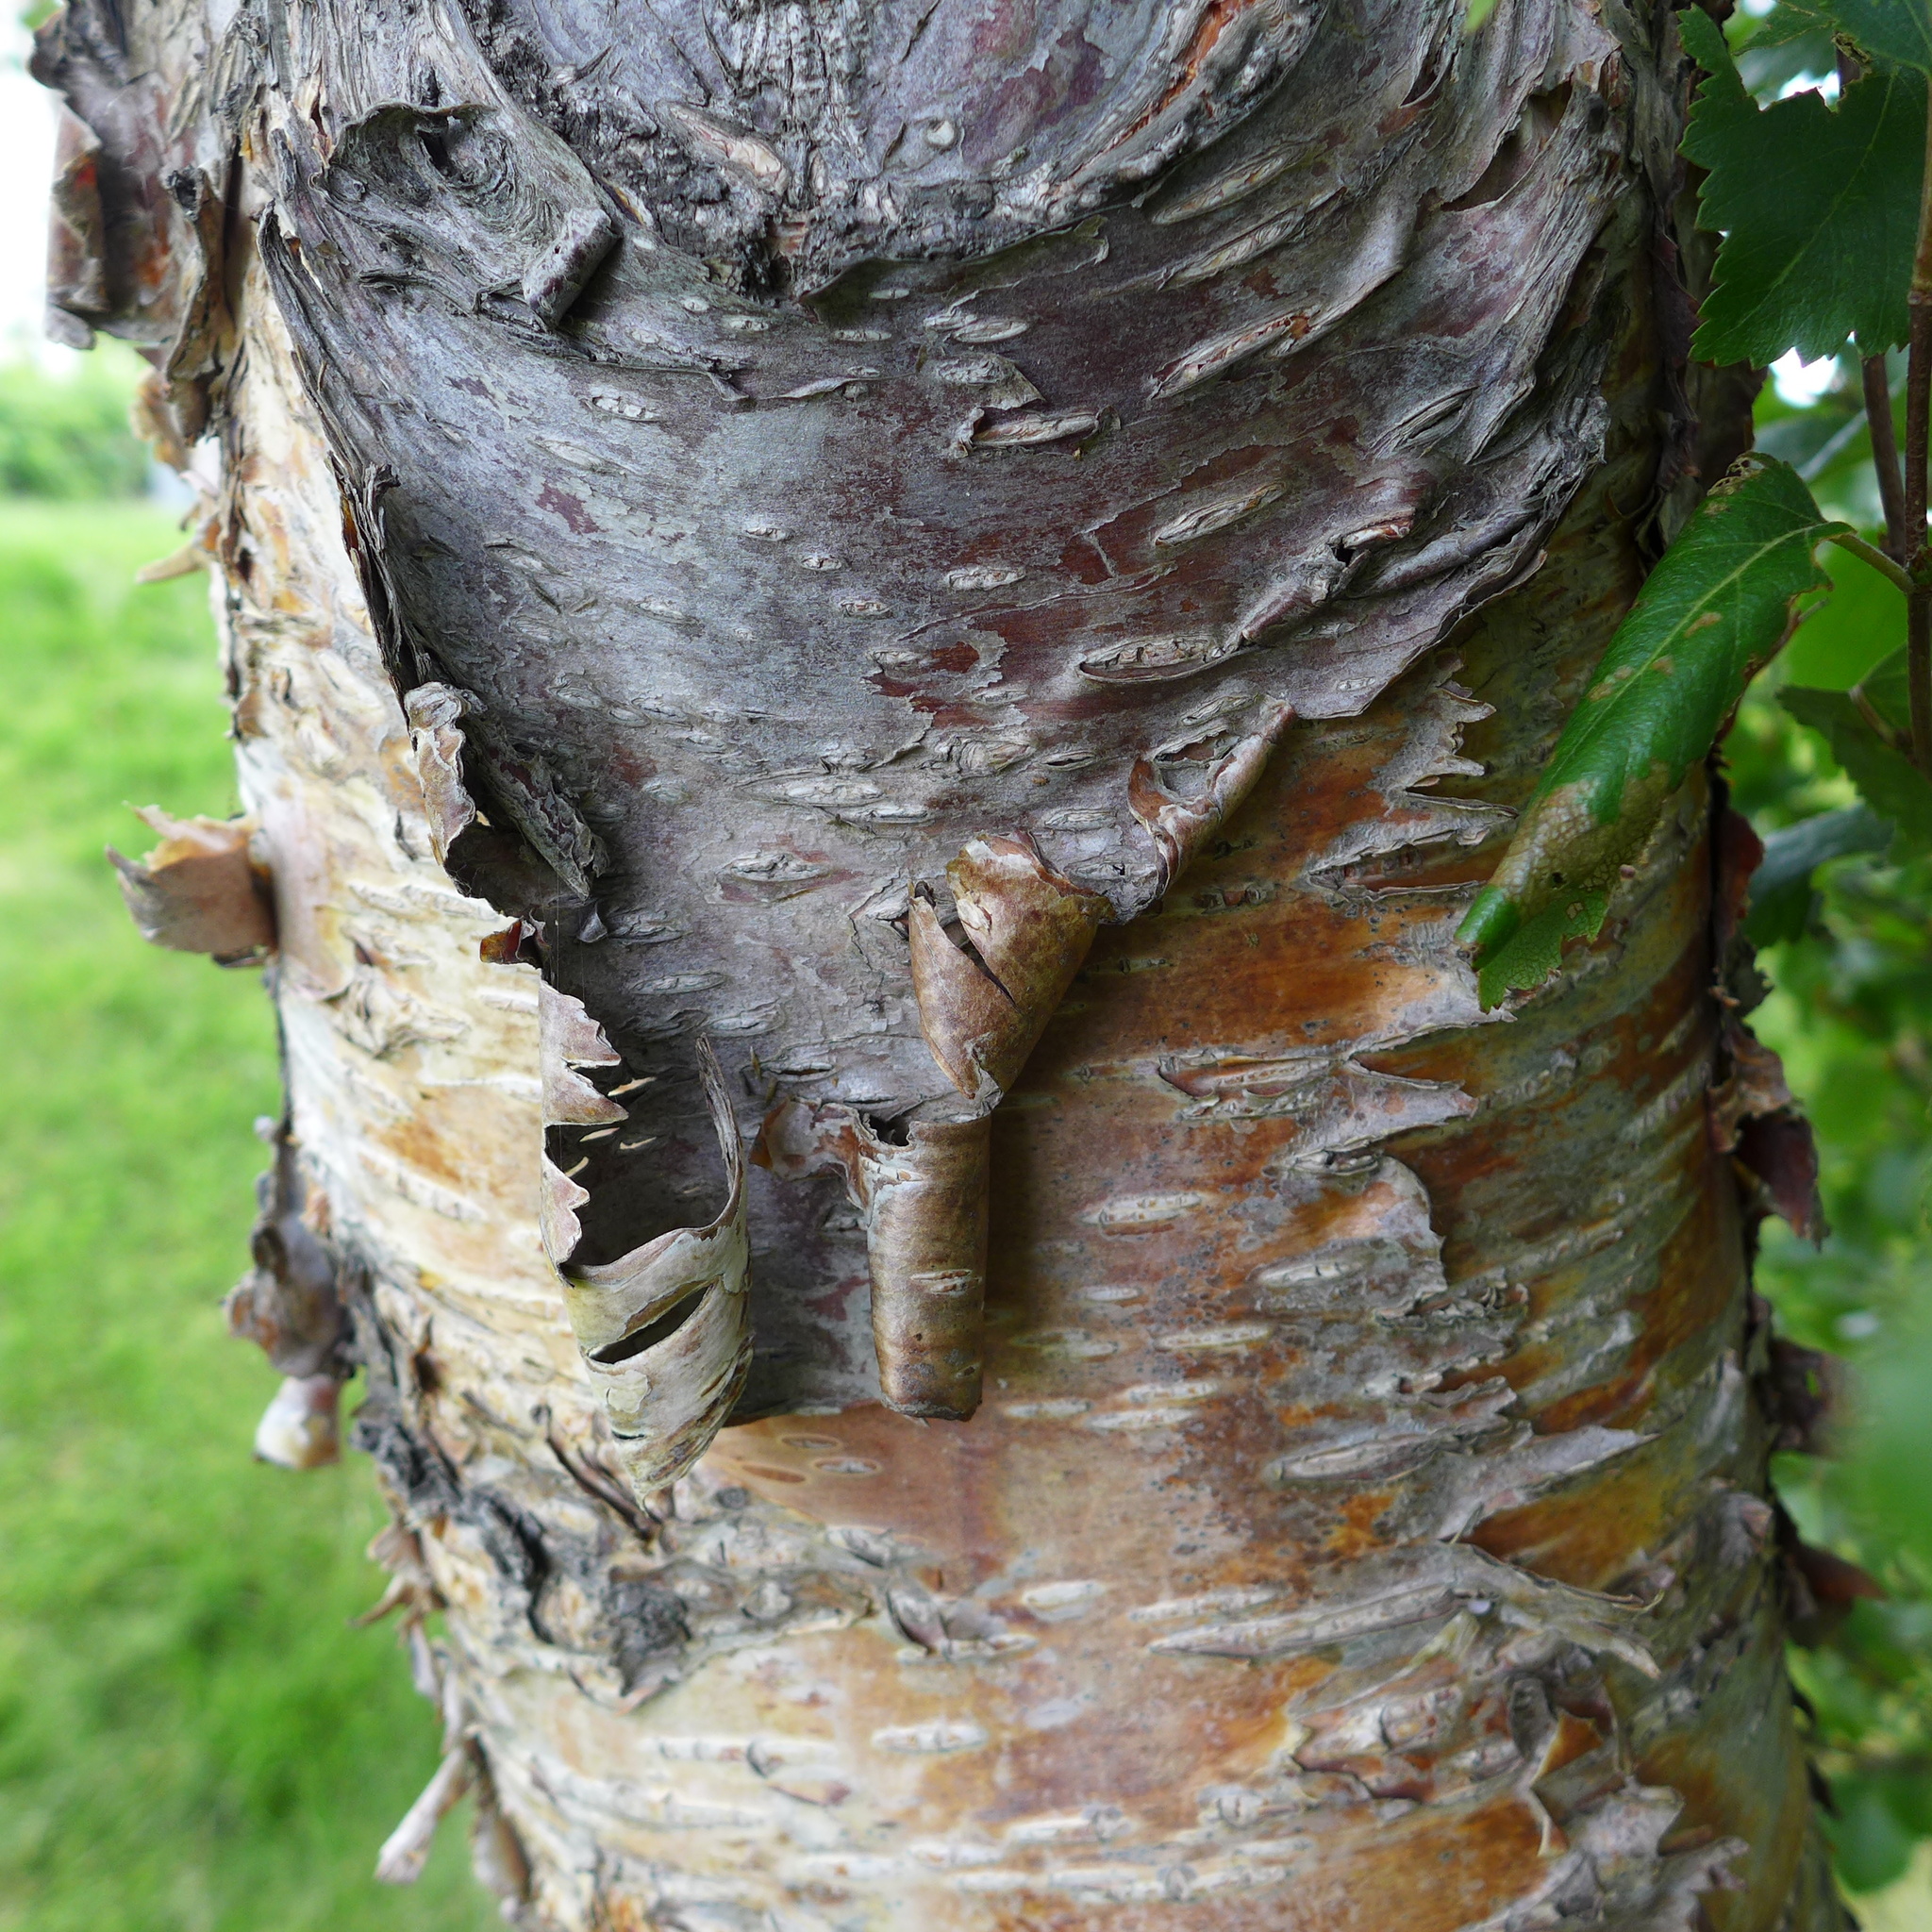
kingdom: Plantae
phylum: Tracheophyta
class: Magnoliopsida
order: Fagales
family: Betulaceae
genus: Betula
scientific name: Betula pubescens
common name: Downy birch
